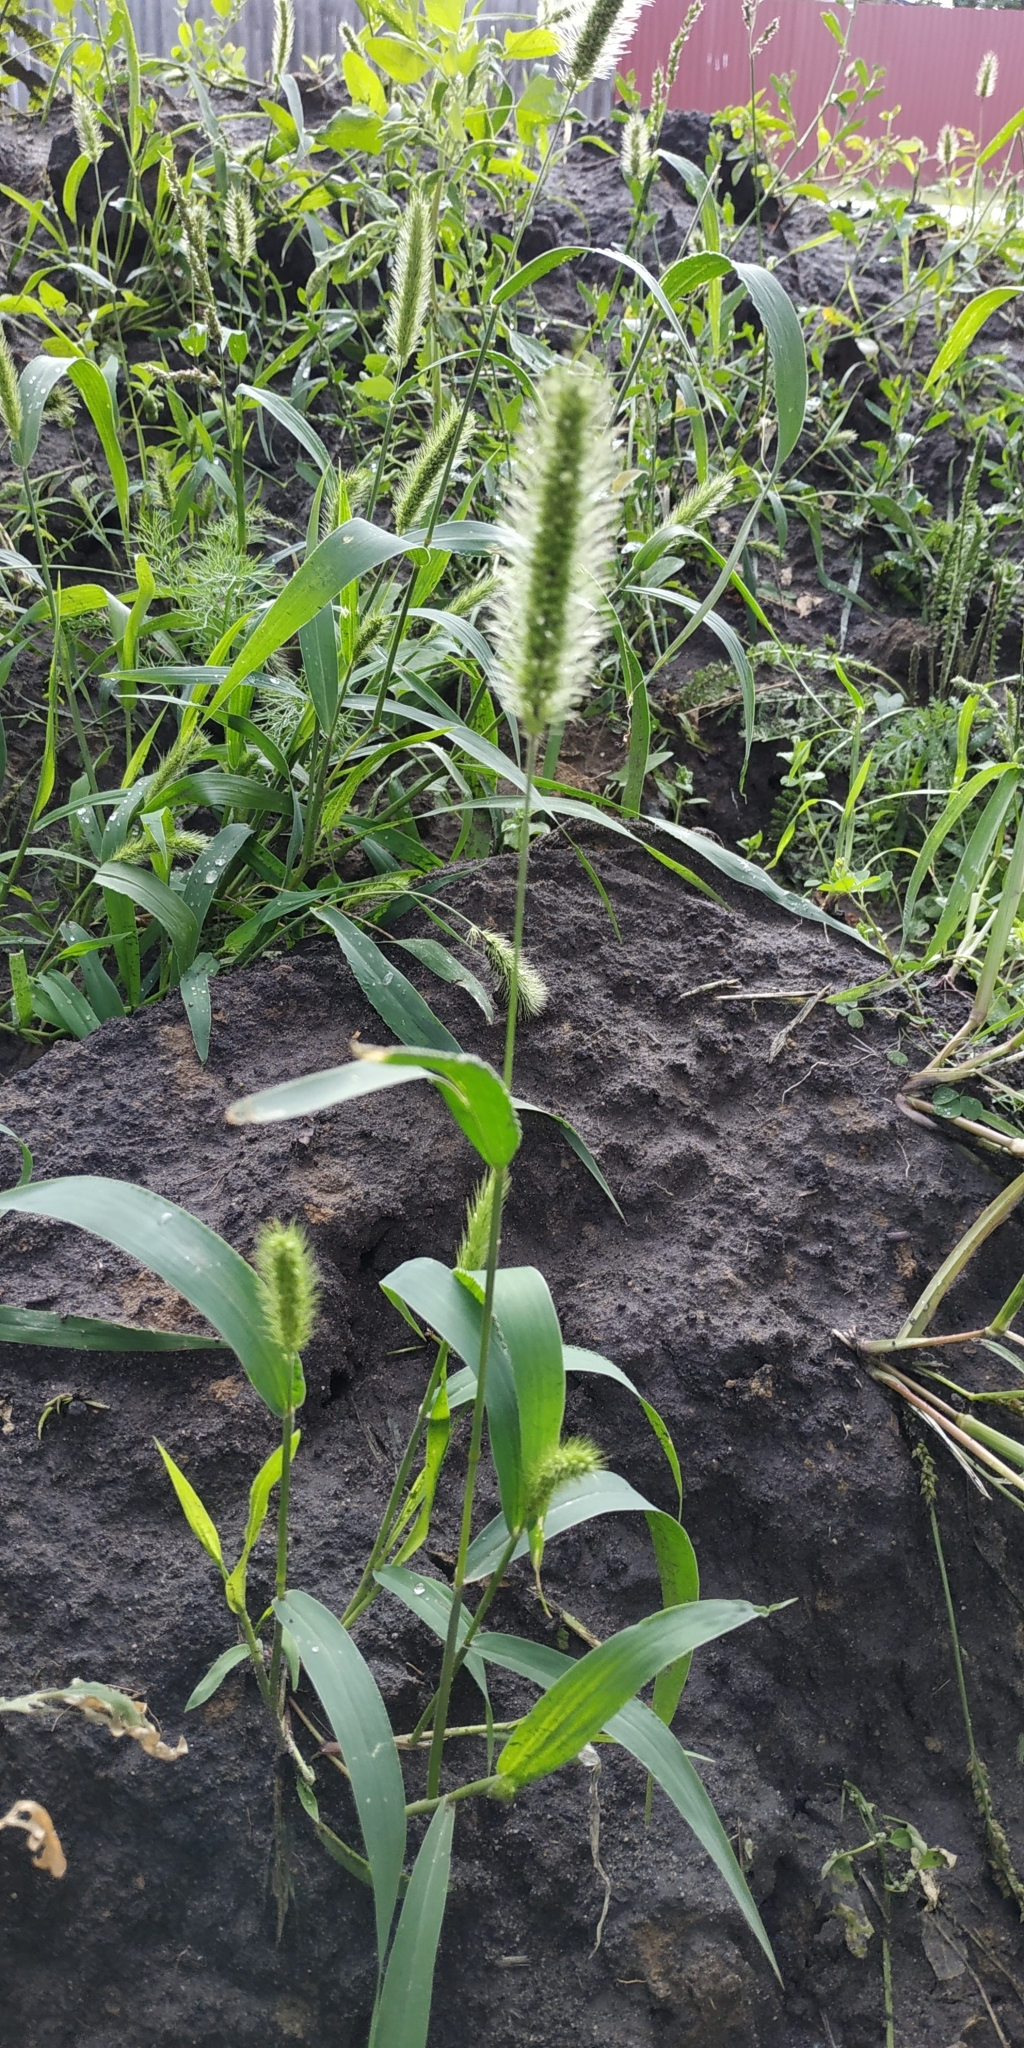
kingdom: Plantae
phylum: Tracheophyta
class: Liliopsida
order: Poales
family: Poaceae
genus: Setaria
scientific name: Setaria viridis
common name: Green bristlegrass
